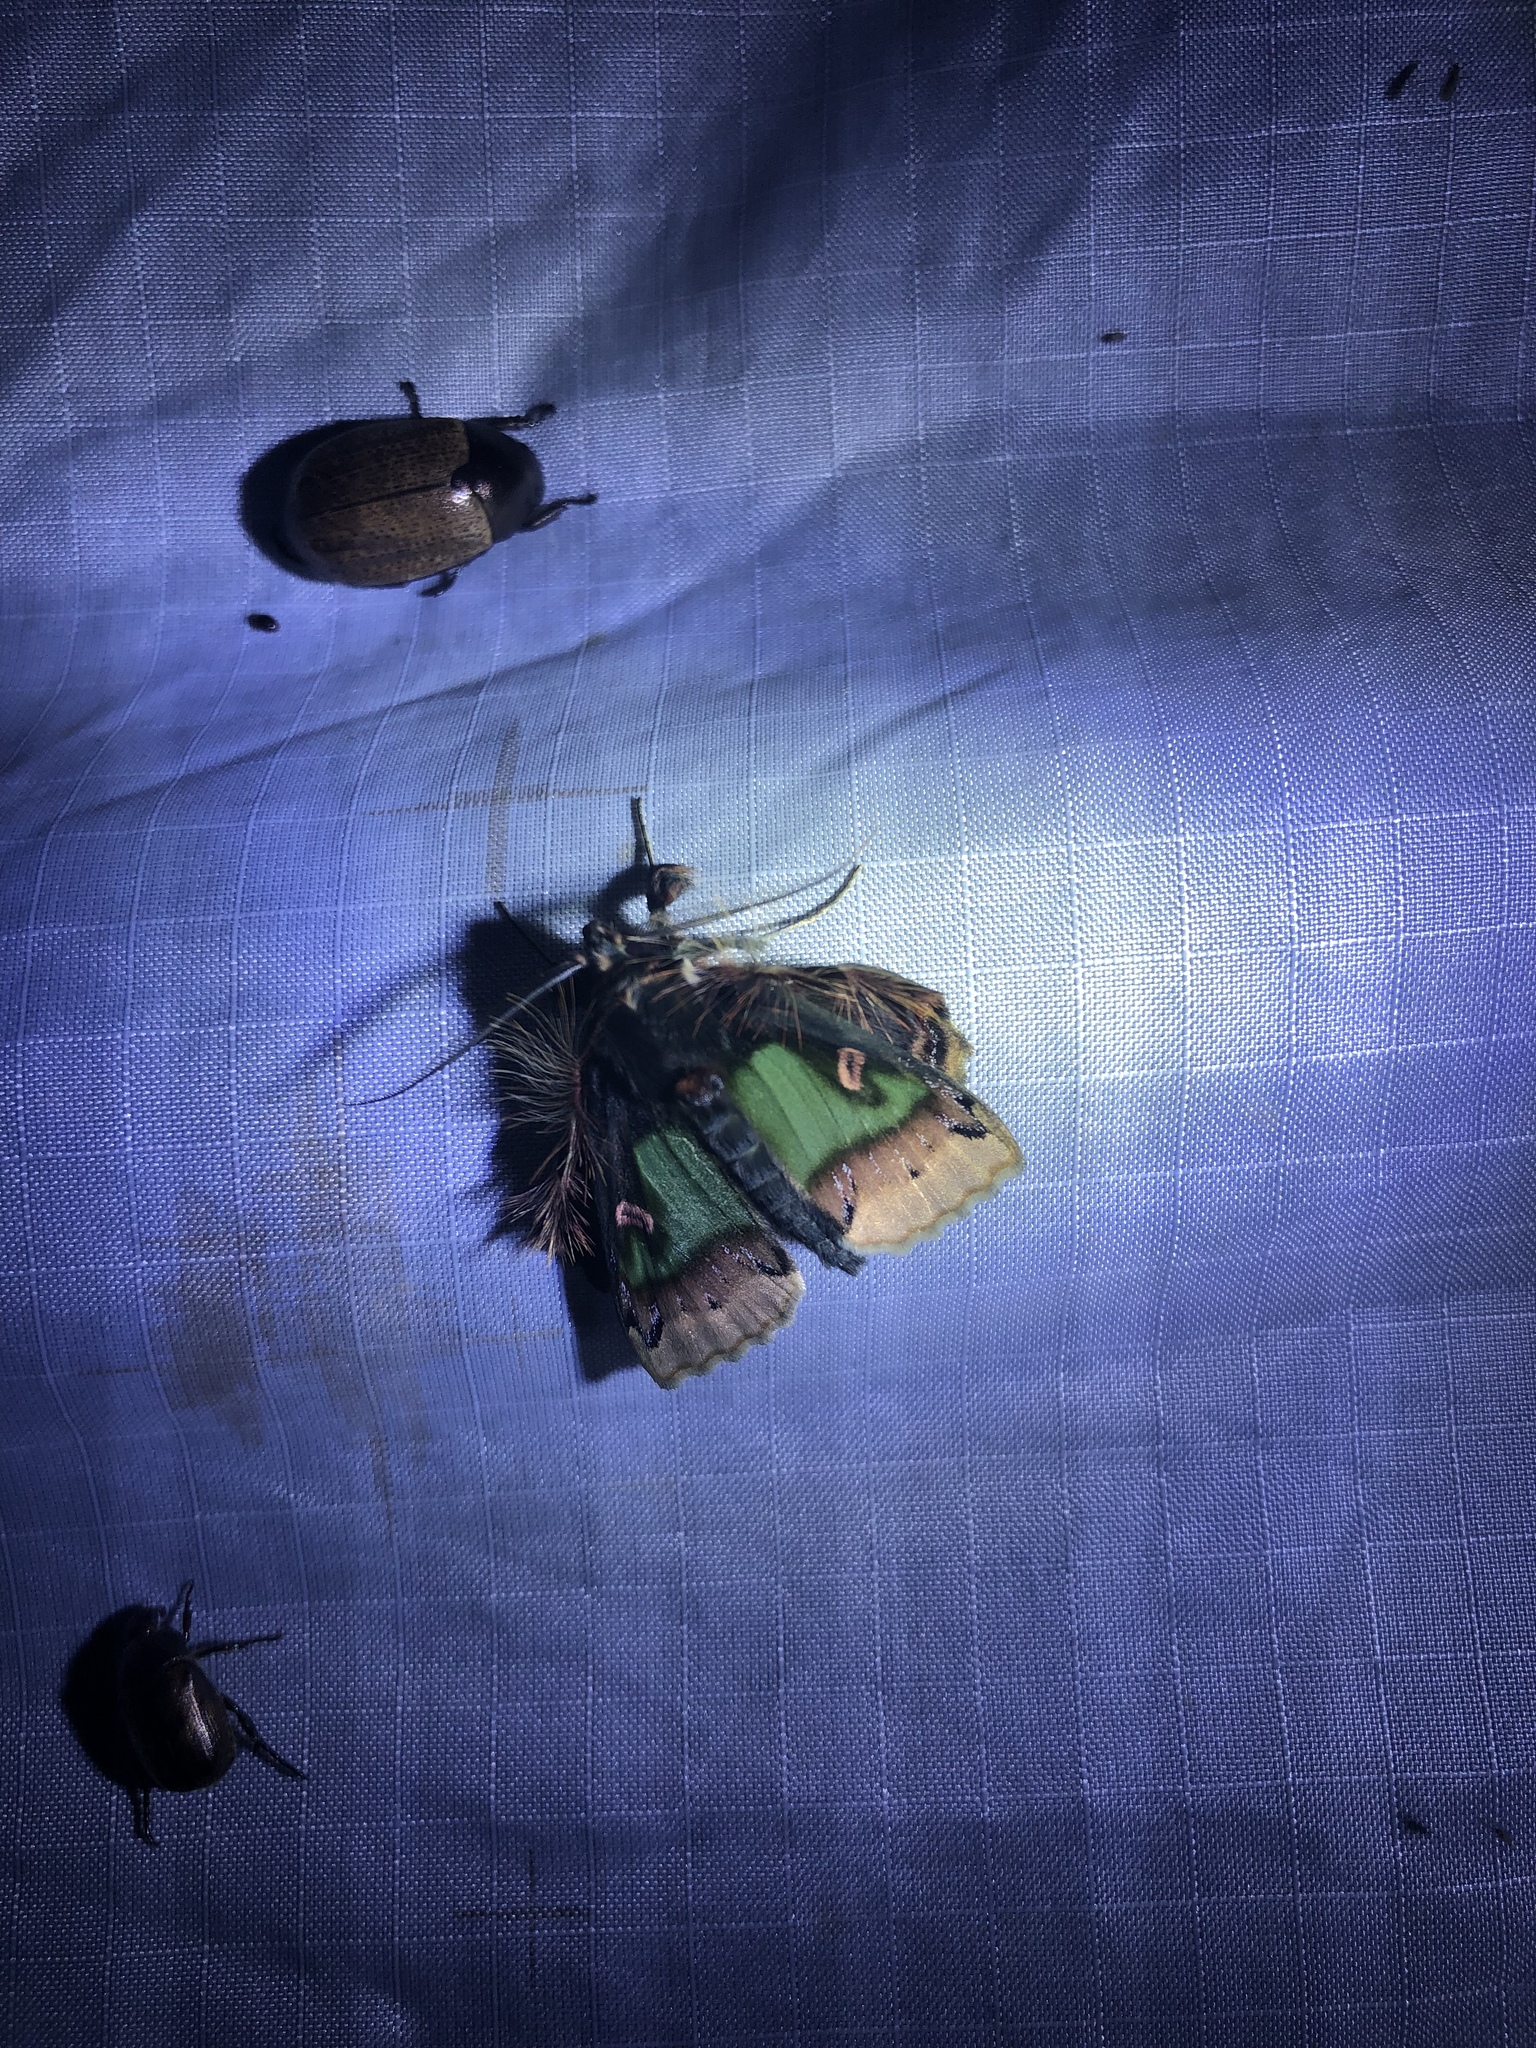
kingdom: Animalia
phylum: Arthropoda
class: Insecta
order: Lepidoptera
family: Erebidae
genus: Ceroctena
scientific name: Ceroctena amynta
